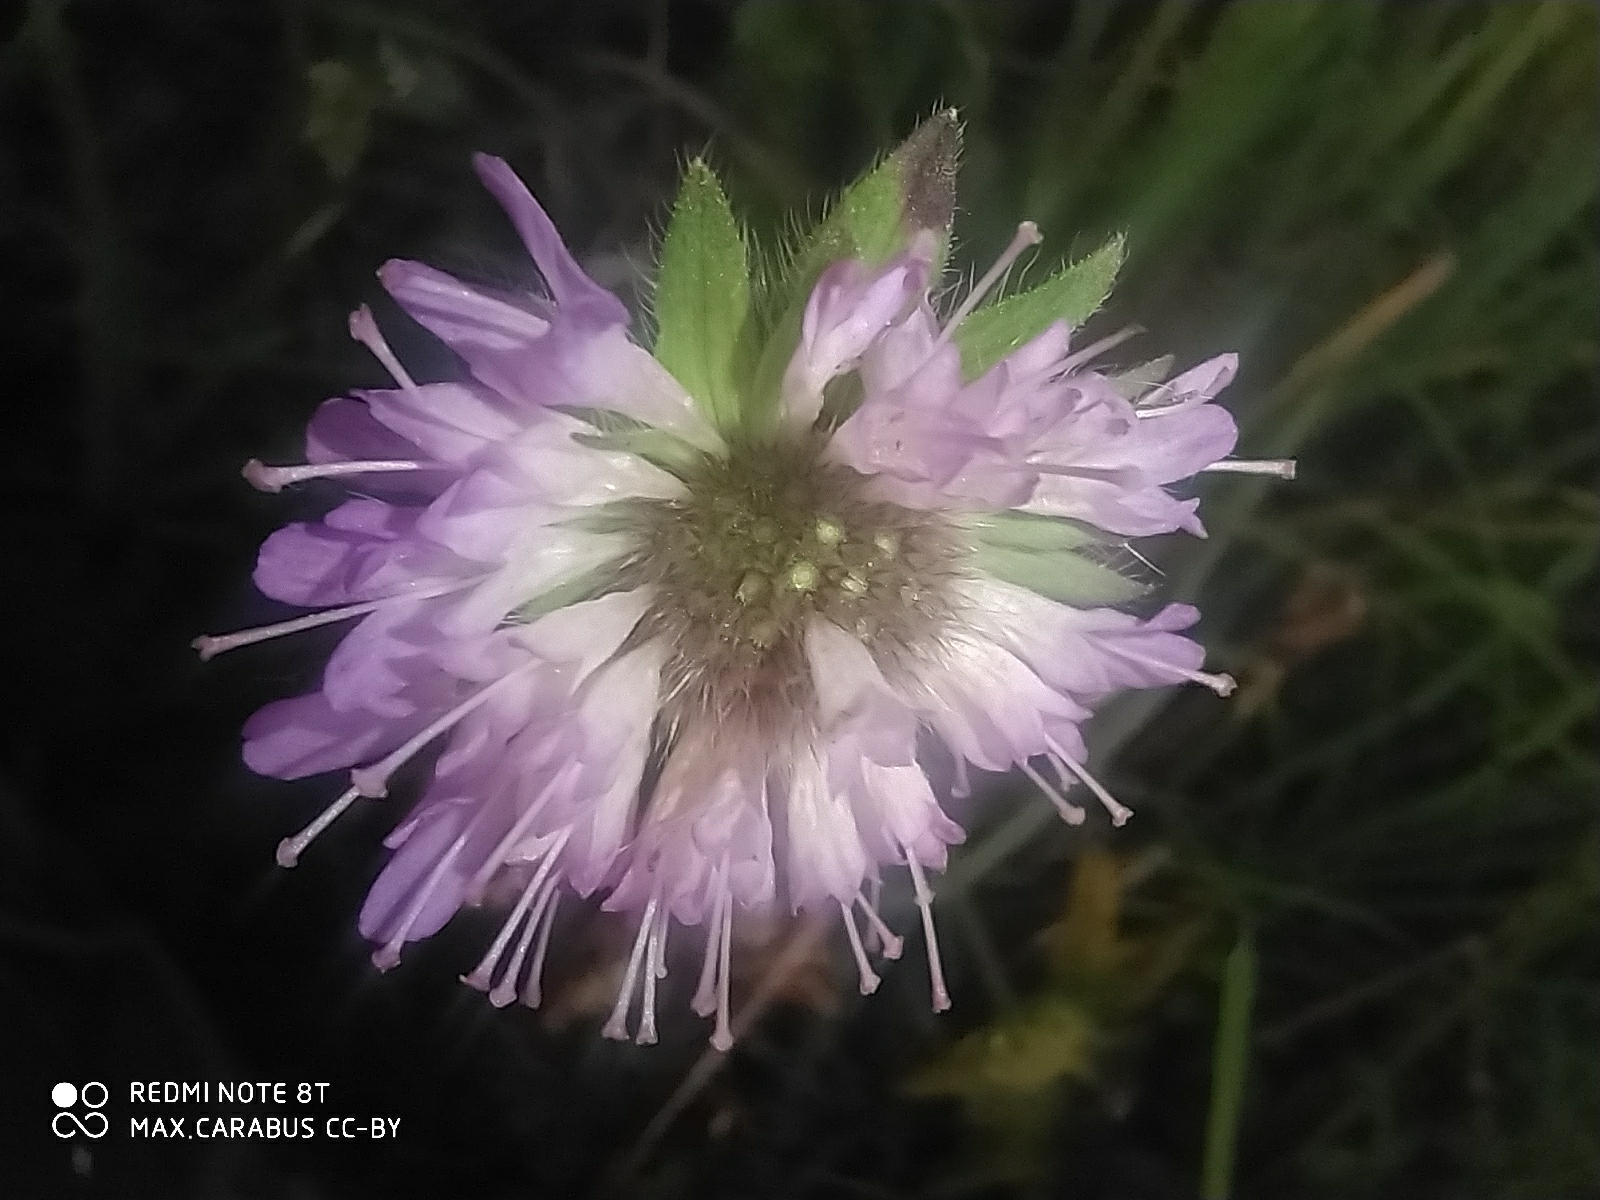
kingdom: Plantae
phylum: Tracheophyta
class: Magnoliopsida
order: Dipsacales
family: Caprifoliaceae
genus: Knautia
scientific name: Knautia arvensis
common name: Field scabiosa
